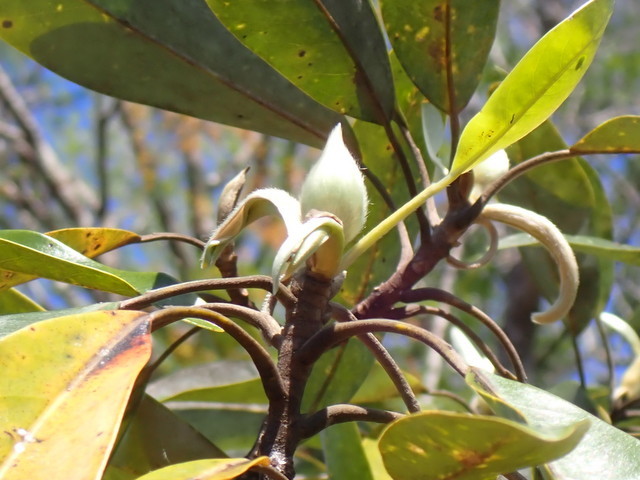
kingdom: Plantae
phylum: Tracheophyta
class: Magnoliopsida
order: Magnoliales
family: Magnoliaceae
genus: Magnolia
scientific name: Magnolia virginiana
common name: Swamp bay
